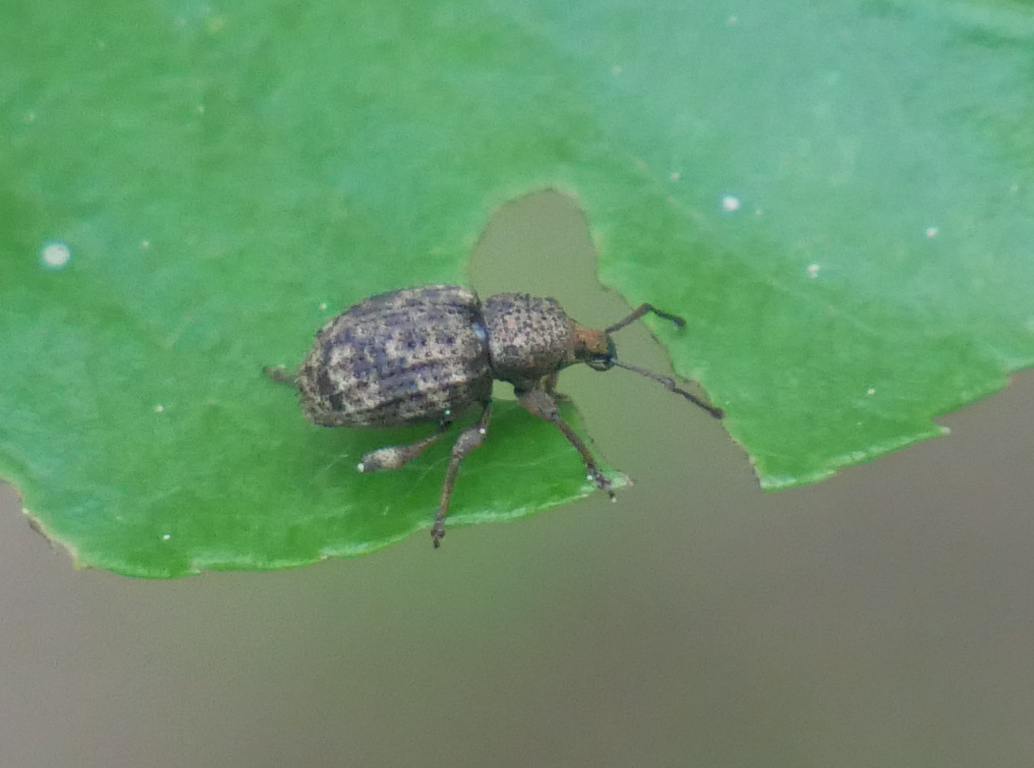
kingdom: Animalia
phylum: Arthropoda
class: Insecta
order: Coleoptera
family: Curculionidae
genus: Otiorhynchus
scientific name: Otiorhynchus carinatopunctatus
